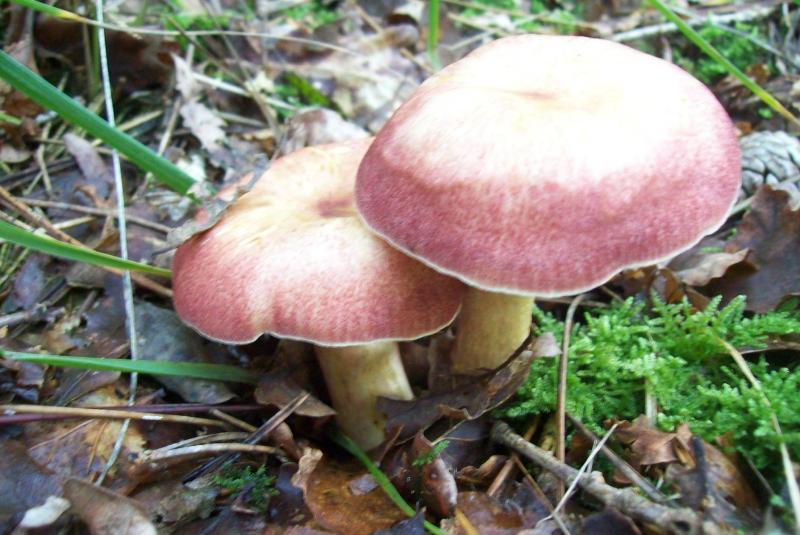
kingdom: Fungi
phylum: Basidiomycota
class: Agaricomycetes
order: Agaricales
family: Tricholomataceae
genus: Tricholomopsis
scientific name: Tricholomopsis rutilans
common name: Plums and custard
